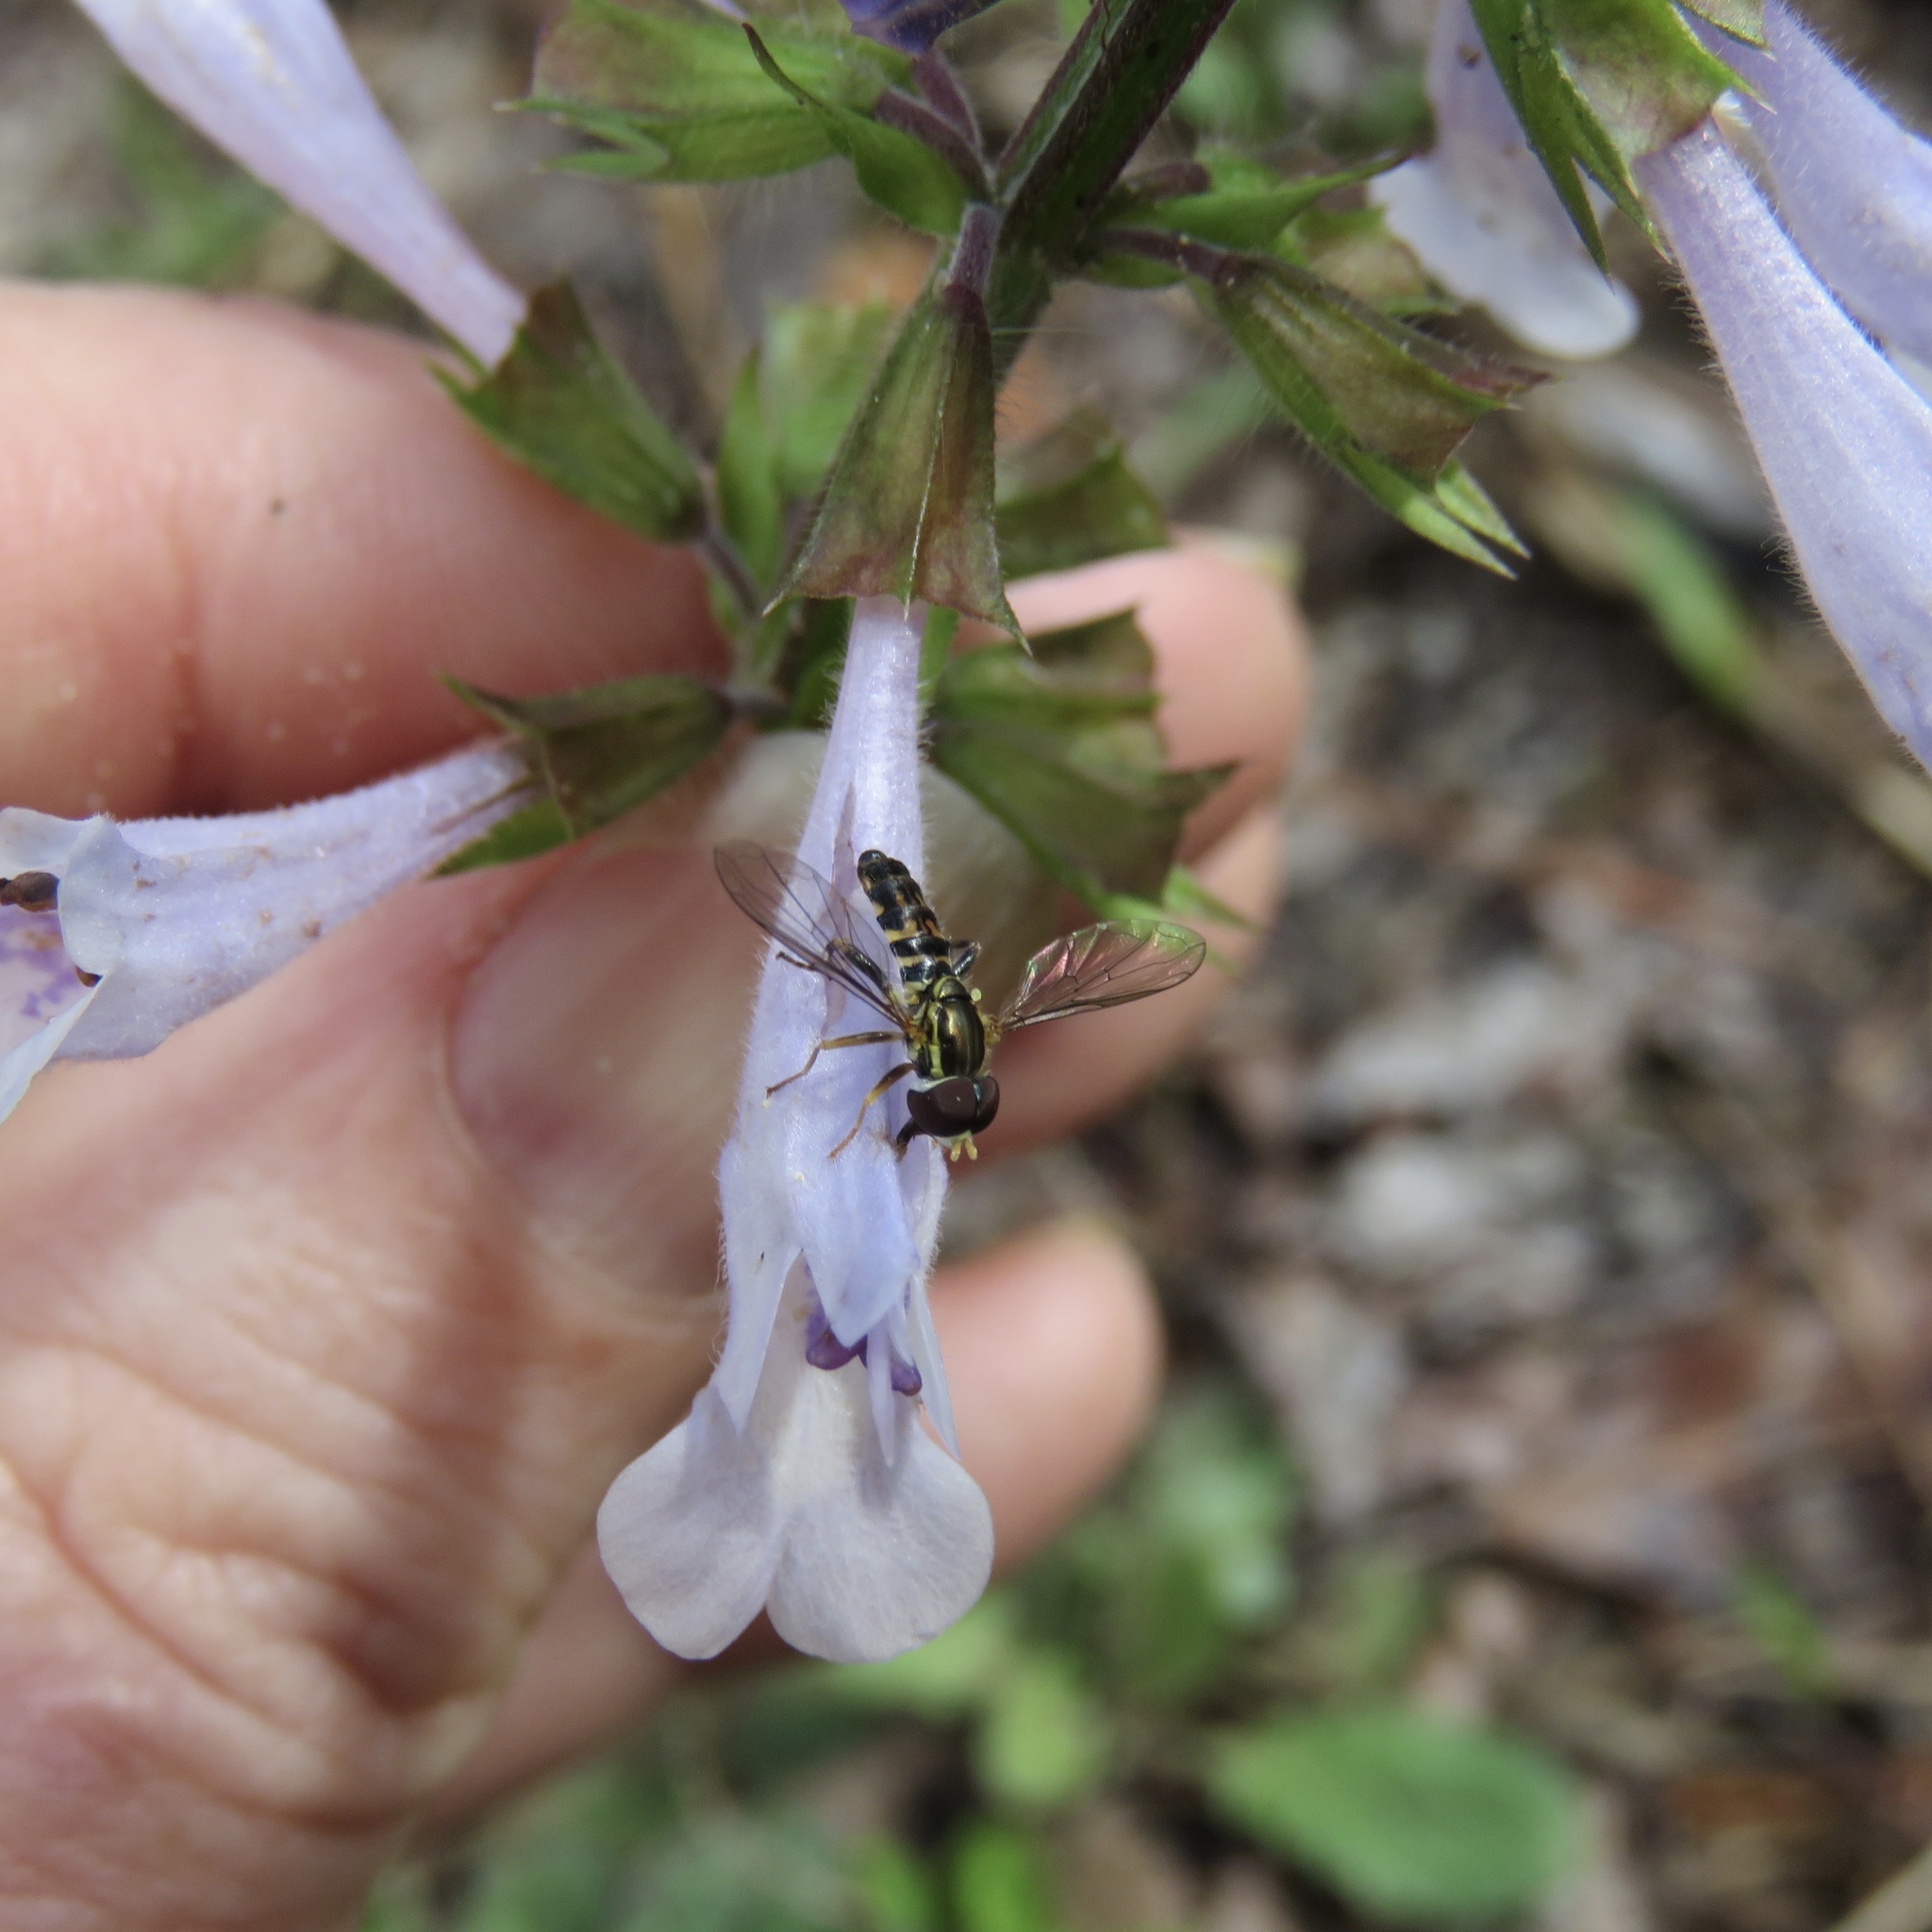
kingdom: Animalia
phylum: Arthropoda
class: Insecta
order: Diptera
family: Syrphidae
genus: Toxomerus
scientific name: Toxomerus geminatus
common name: Eastern calligrapher
